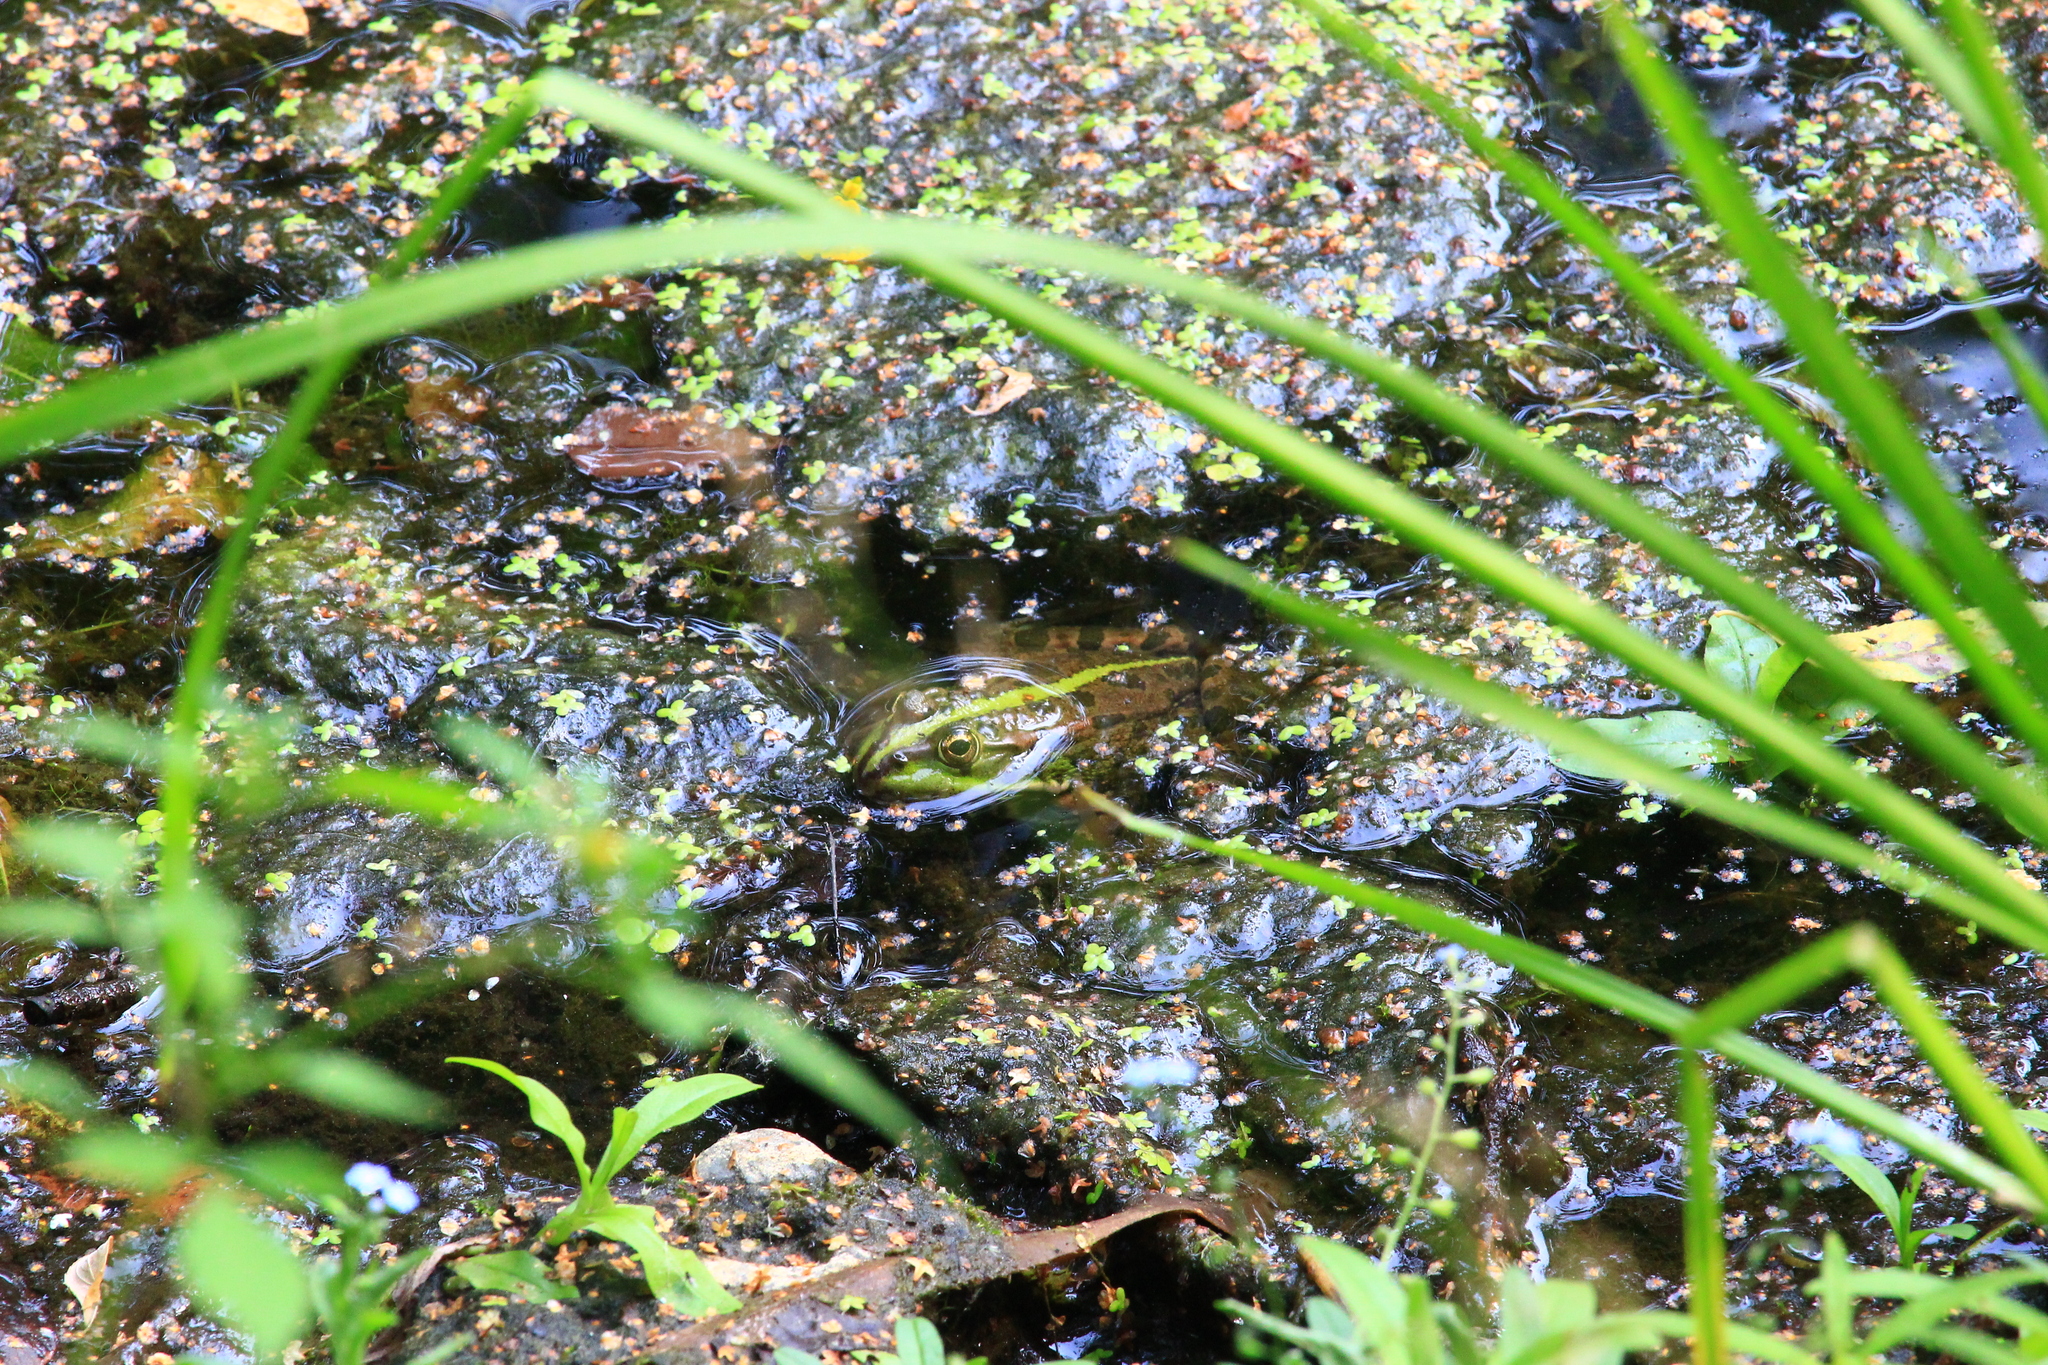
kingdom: Animalia
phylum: Chordata
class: Amphibia
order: Anura
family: Ranidae
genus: Pelophylax
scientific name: Pelophylax ridibundus
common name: Marsh frog
